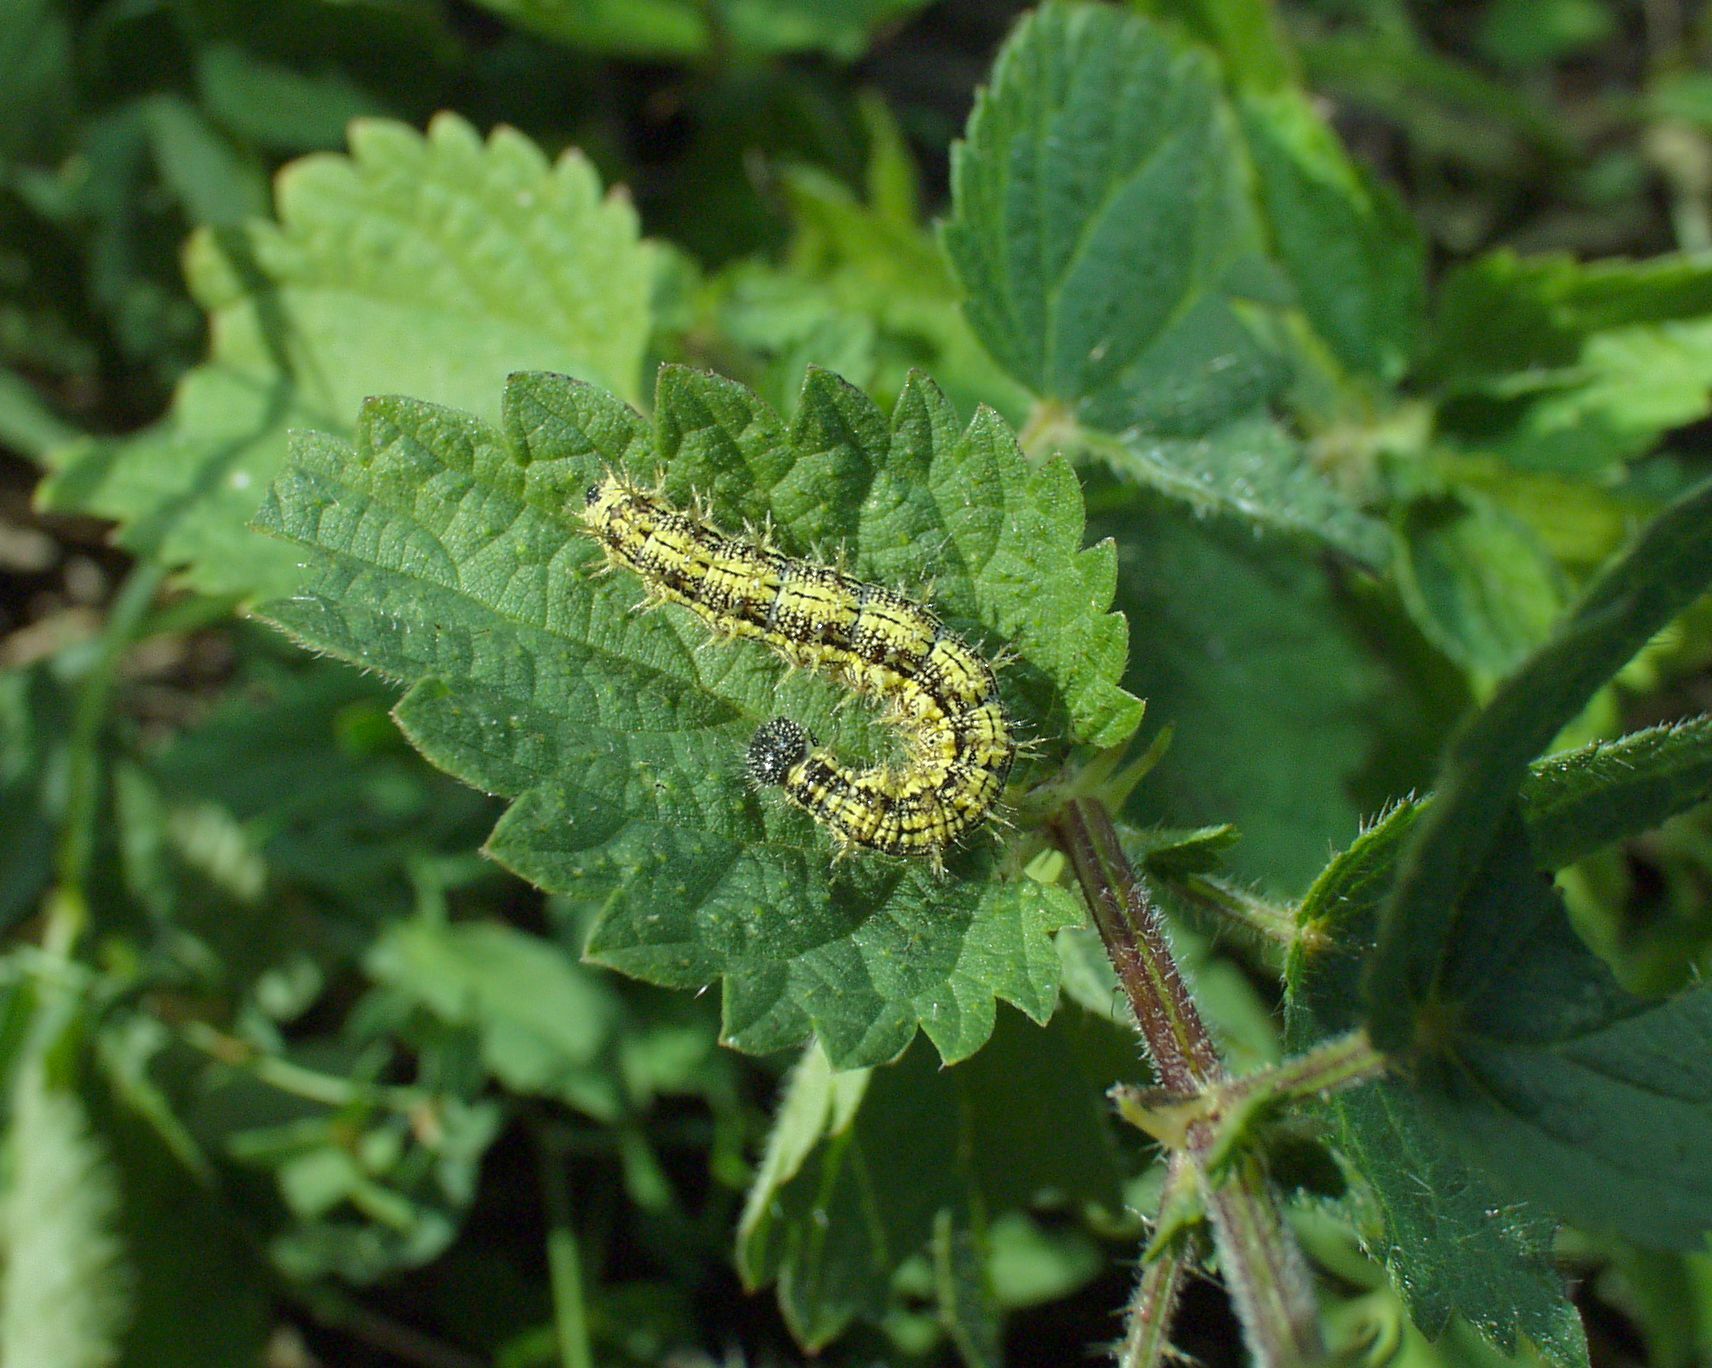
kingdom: Animalia
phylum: Arthropoda
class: Insecta
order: Lepidoptera
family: Nymphalidae
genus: Aglais
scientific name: Aglais urticae
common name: Small tortoiseshell
